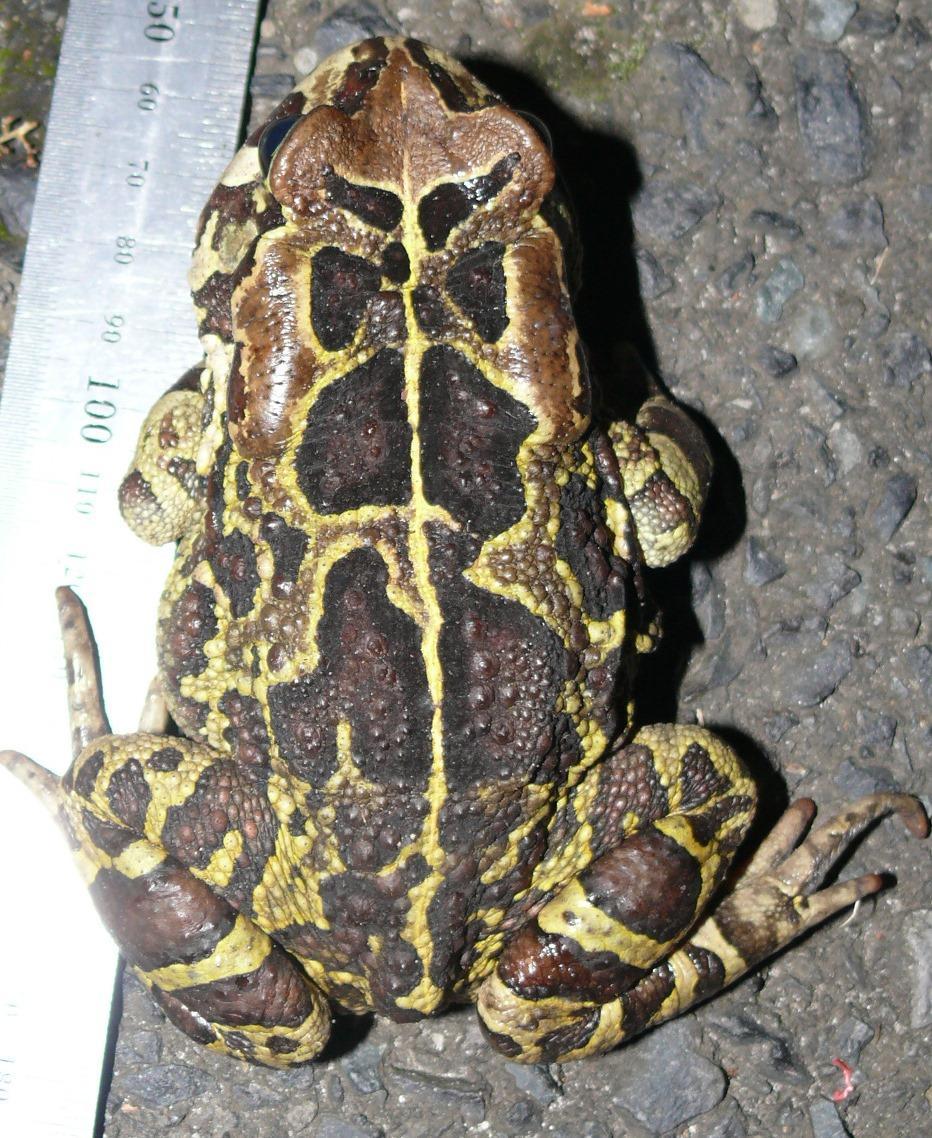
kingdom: Animalia
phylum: Chordata
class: Amphibia
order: Anura
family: Bufonidae
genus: Sclerophrys
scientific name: Sclerophrys pantherina
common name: Panther toad
